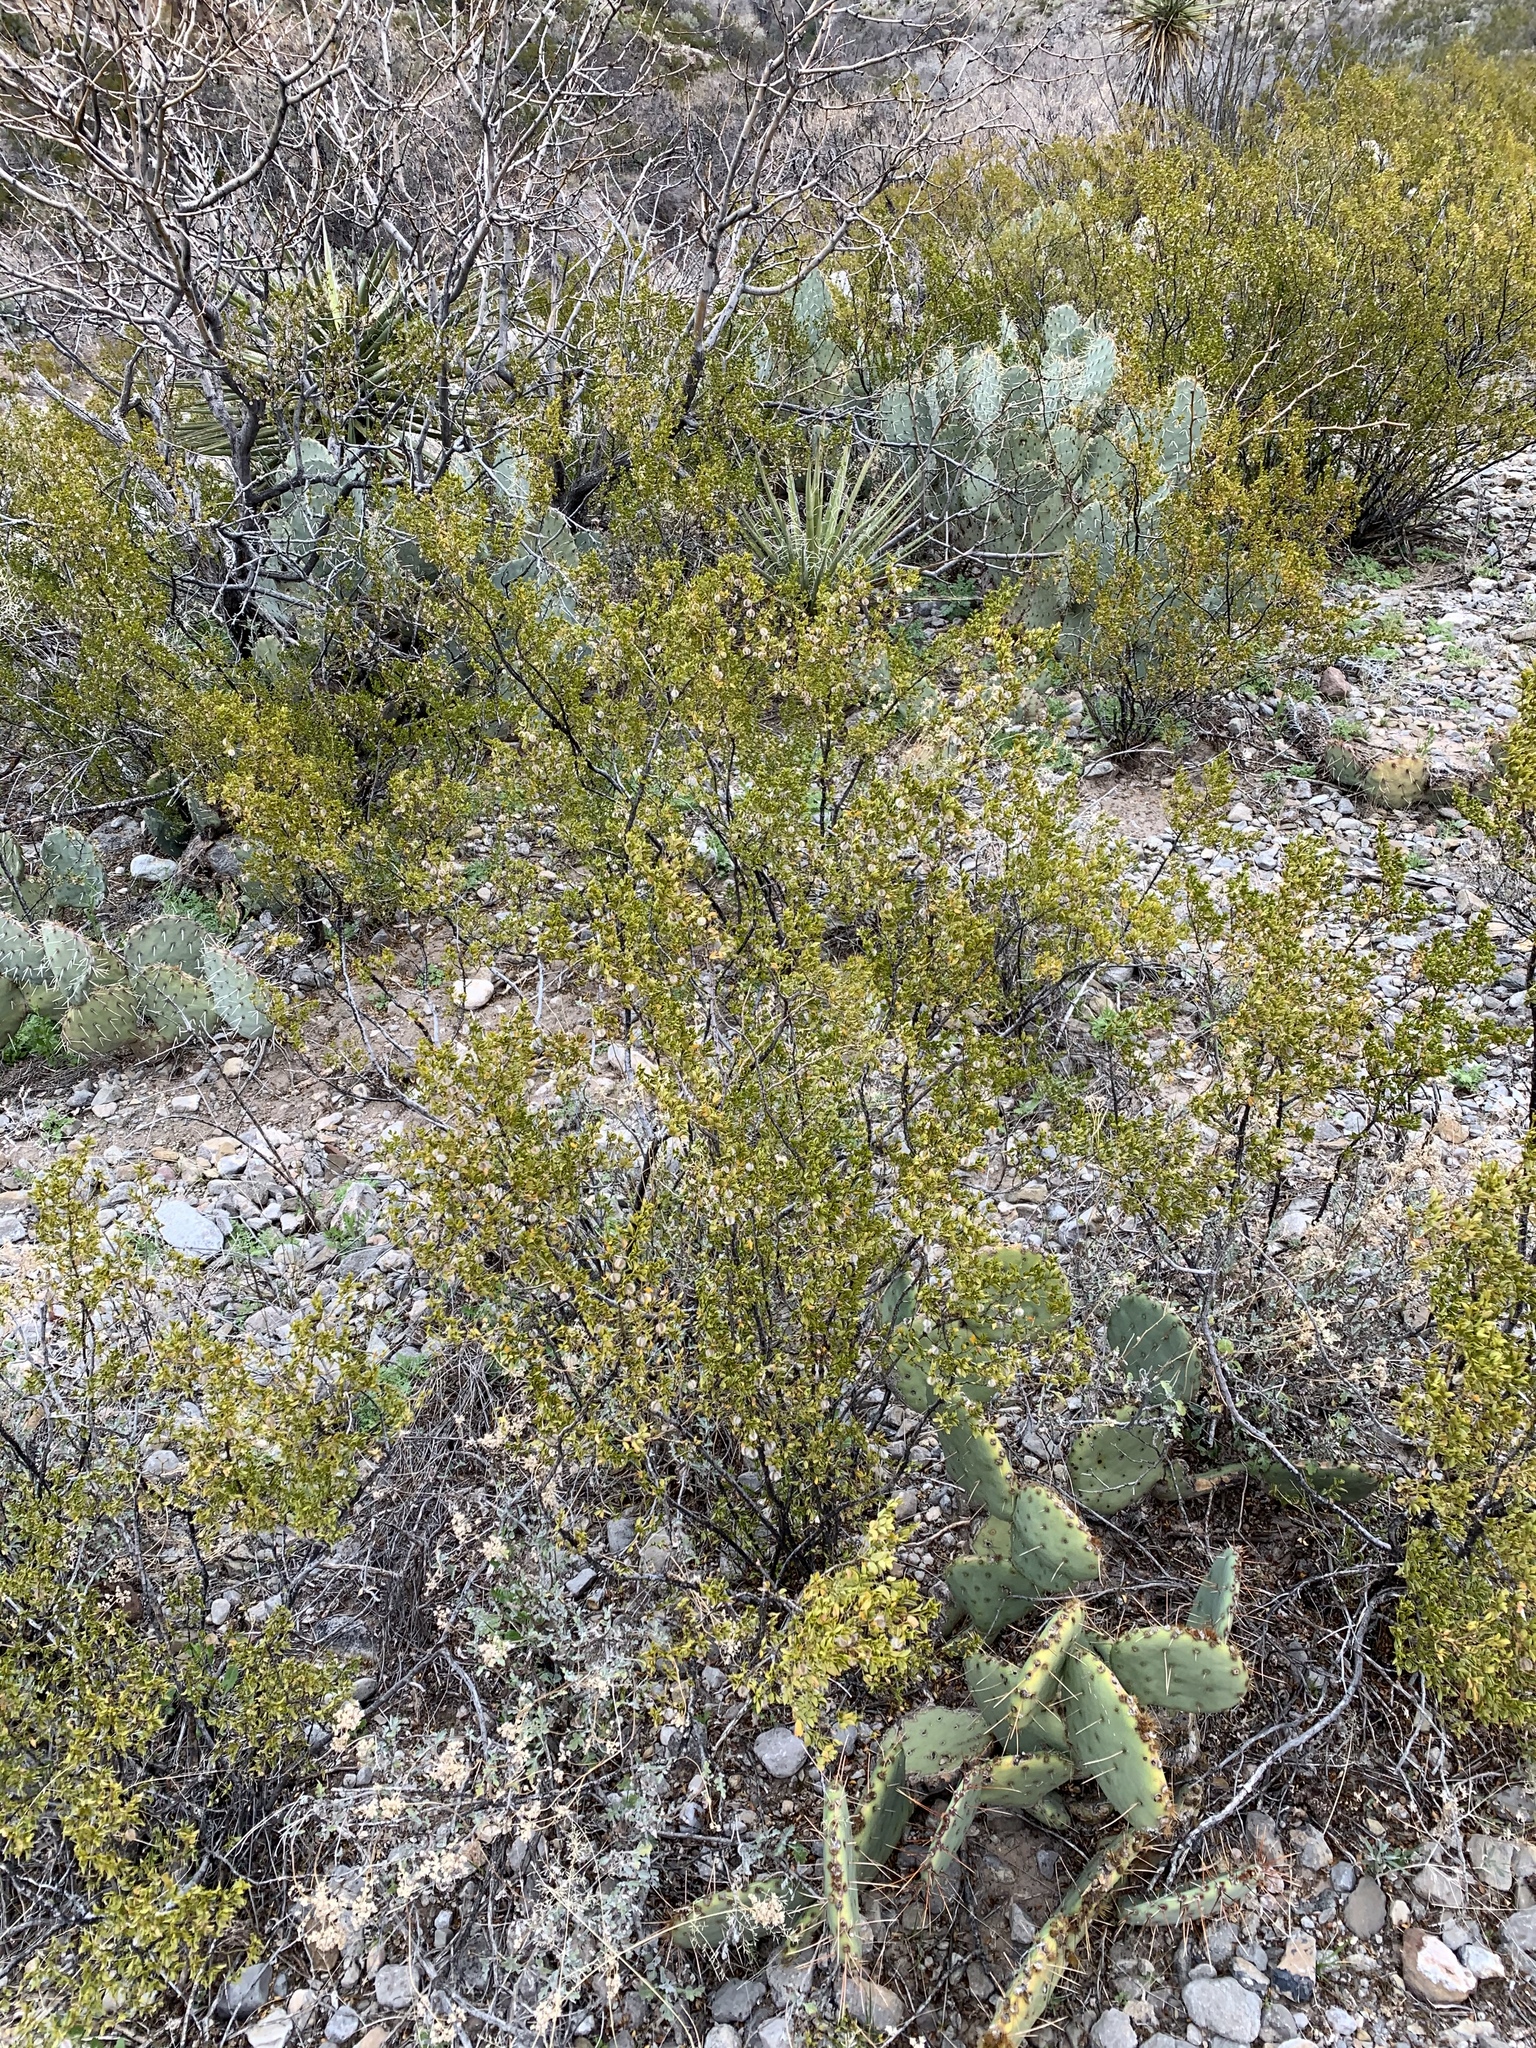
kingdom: Plantae
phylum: Tracheophyta
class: Magnoliopsida
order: Zygophyllales
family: Zygophyllaceae
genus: Larrea
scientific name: Larrea tridentata
